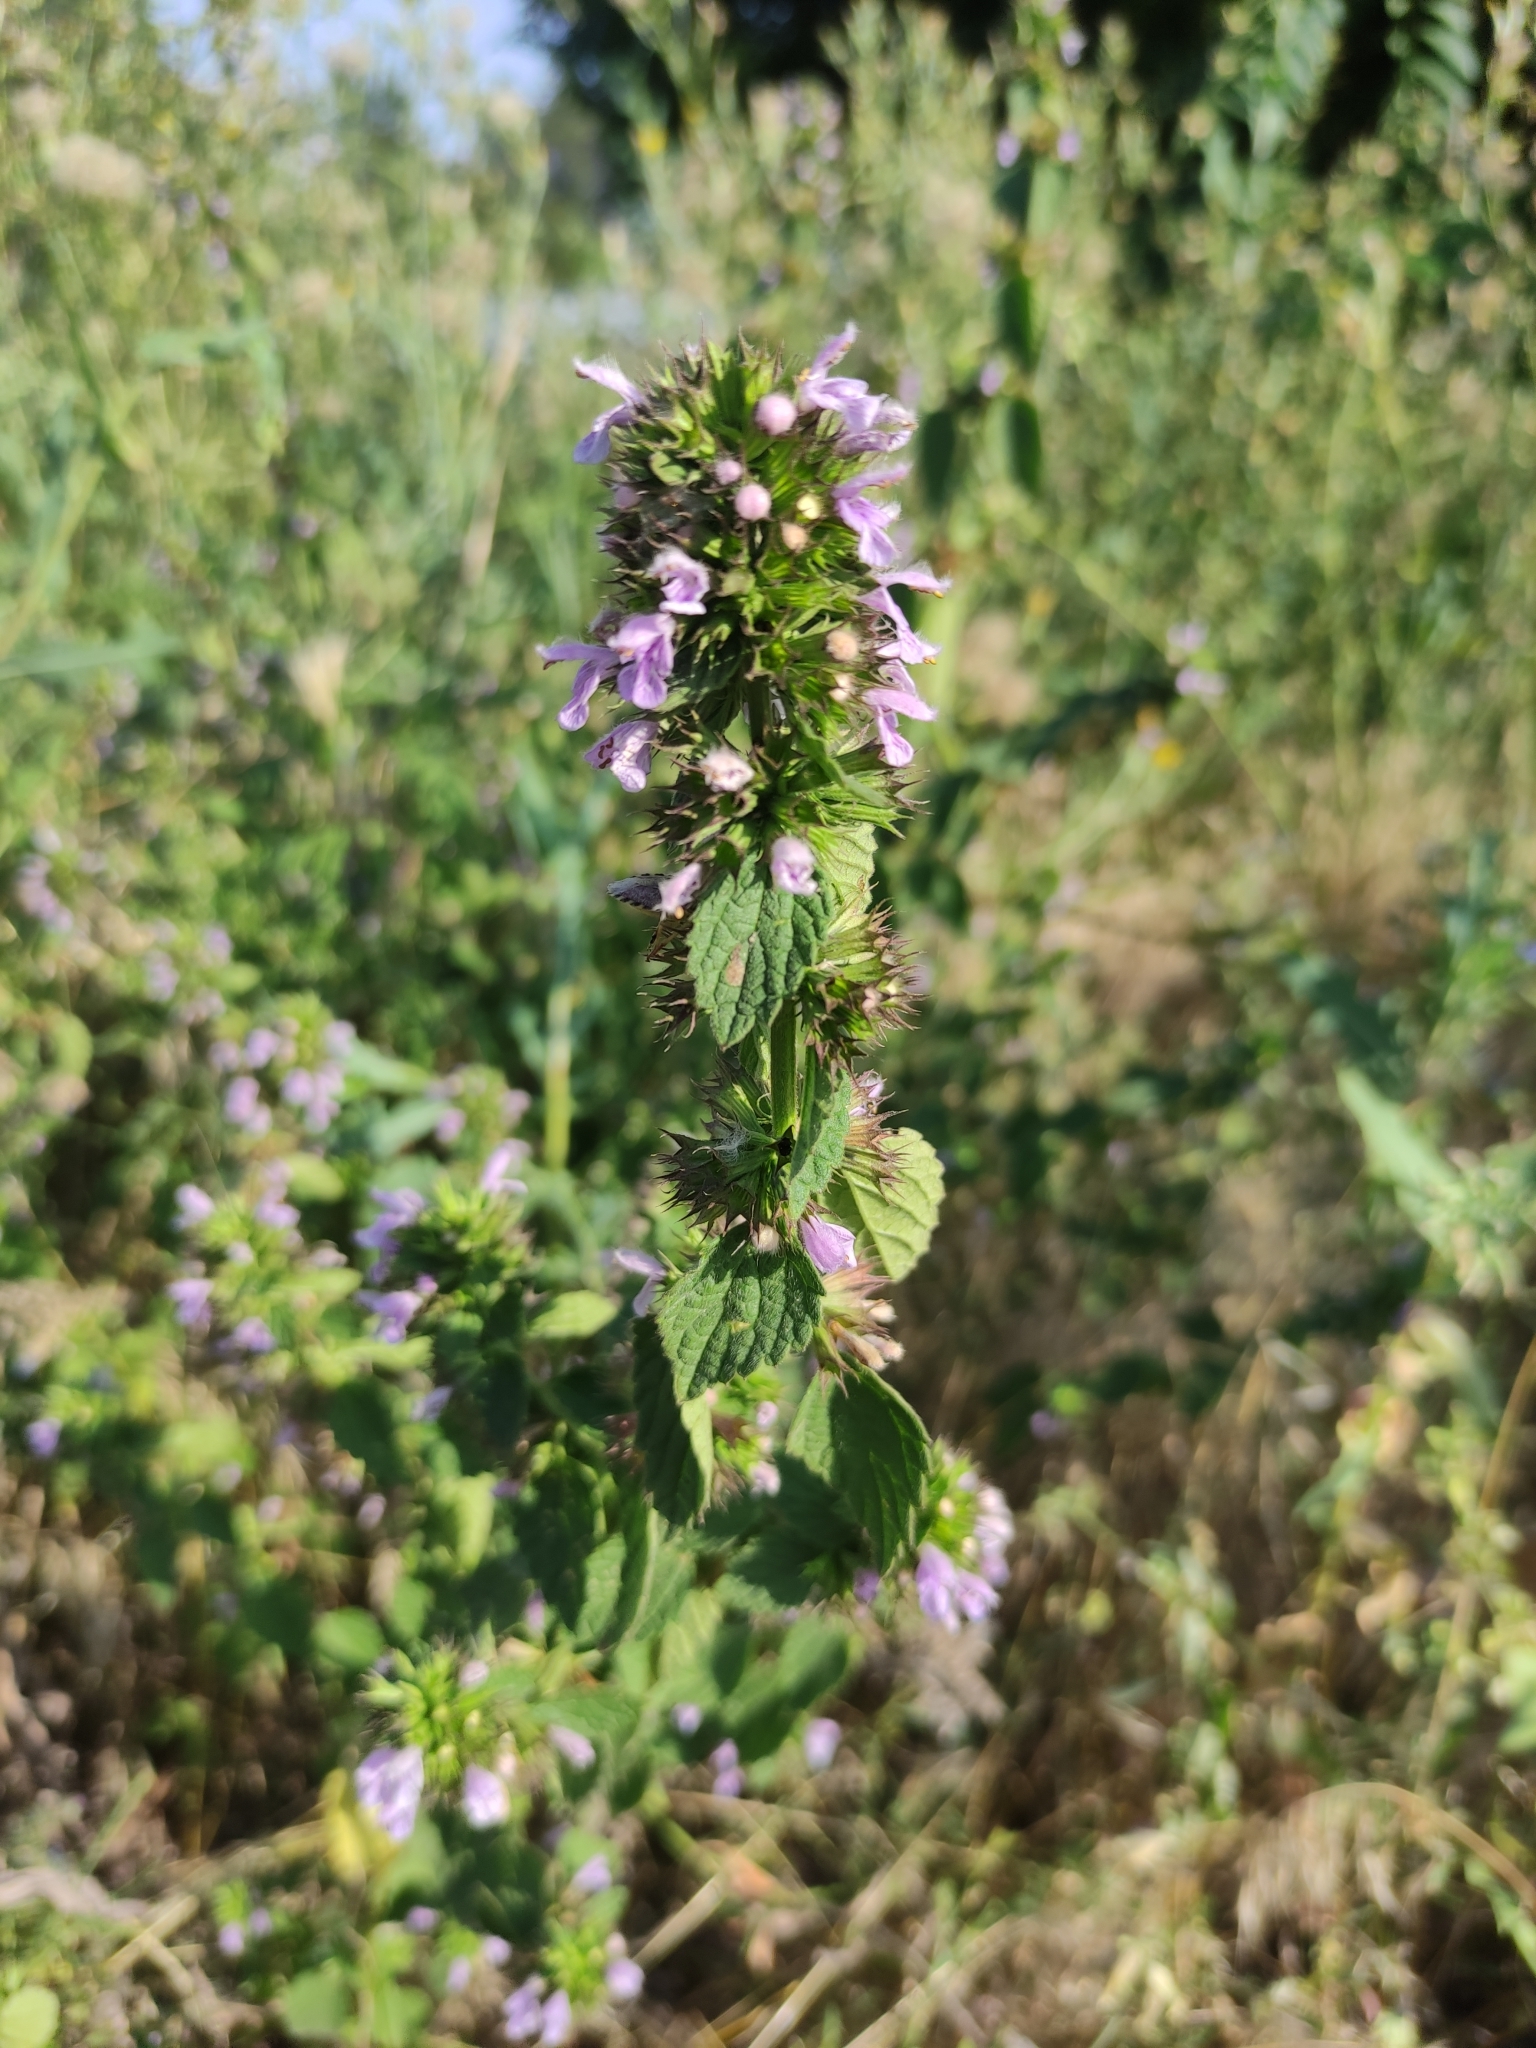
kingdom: Plantae
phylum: Tracheophyta
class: Magnoliopsida
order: Lamiales
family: Lamiaceae
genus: Ballota
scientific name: Ballota nigra
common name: Black horehound
